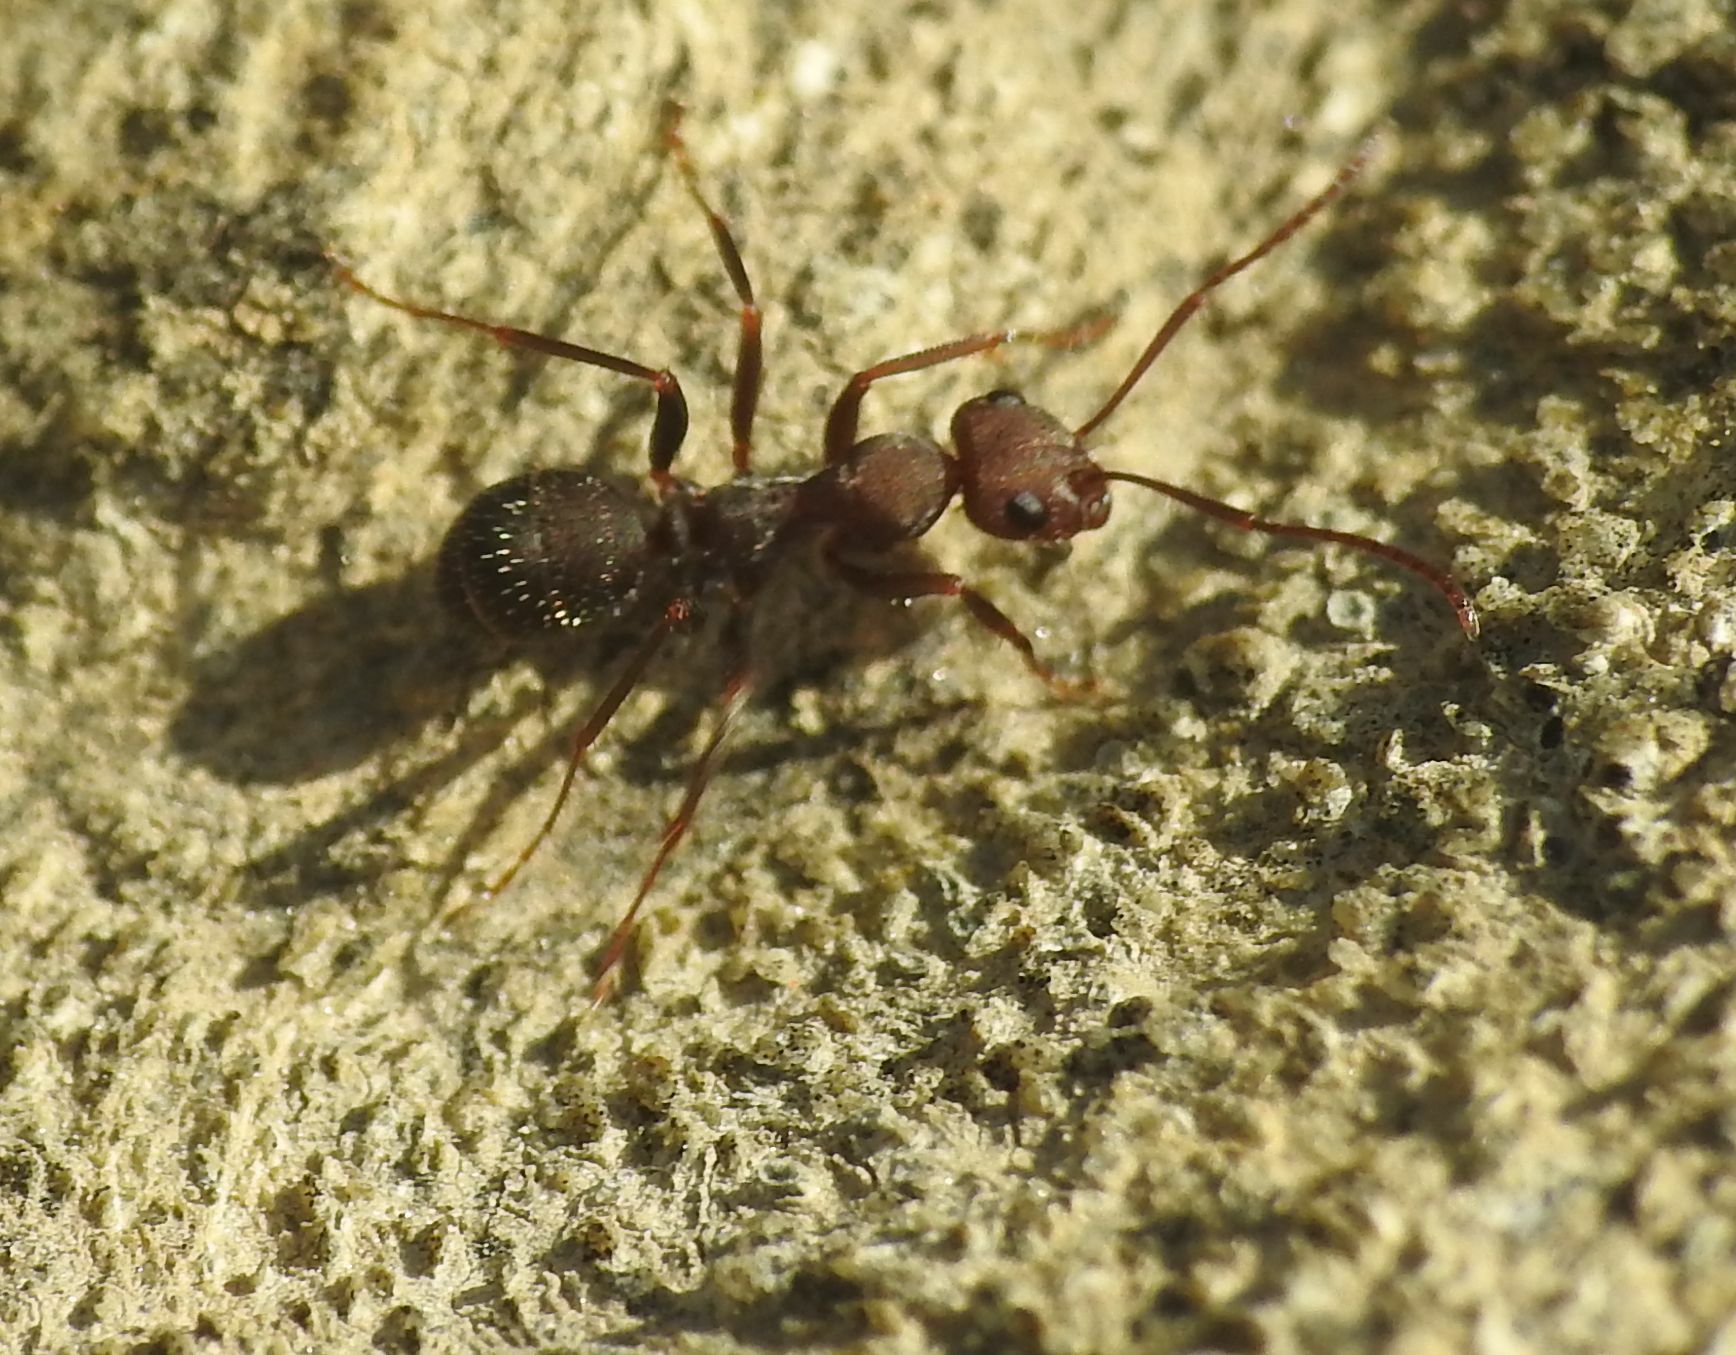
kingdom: Animalia
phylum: Arthropoda
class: Insecta
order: Hymenoptera
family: Formicidae
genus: Formica
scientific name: Formica subrufa
